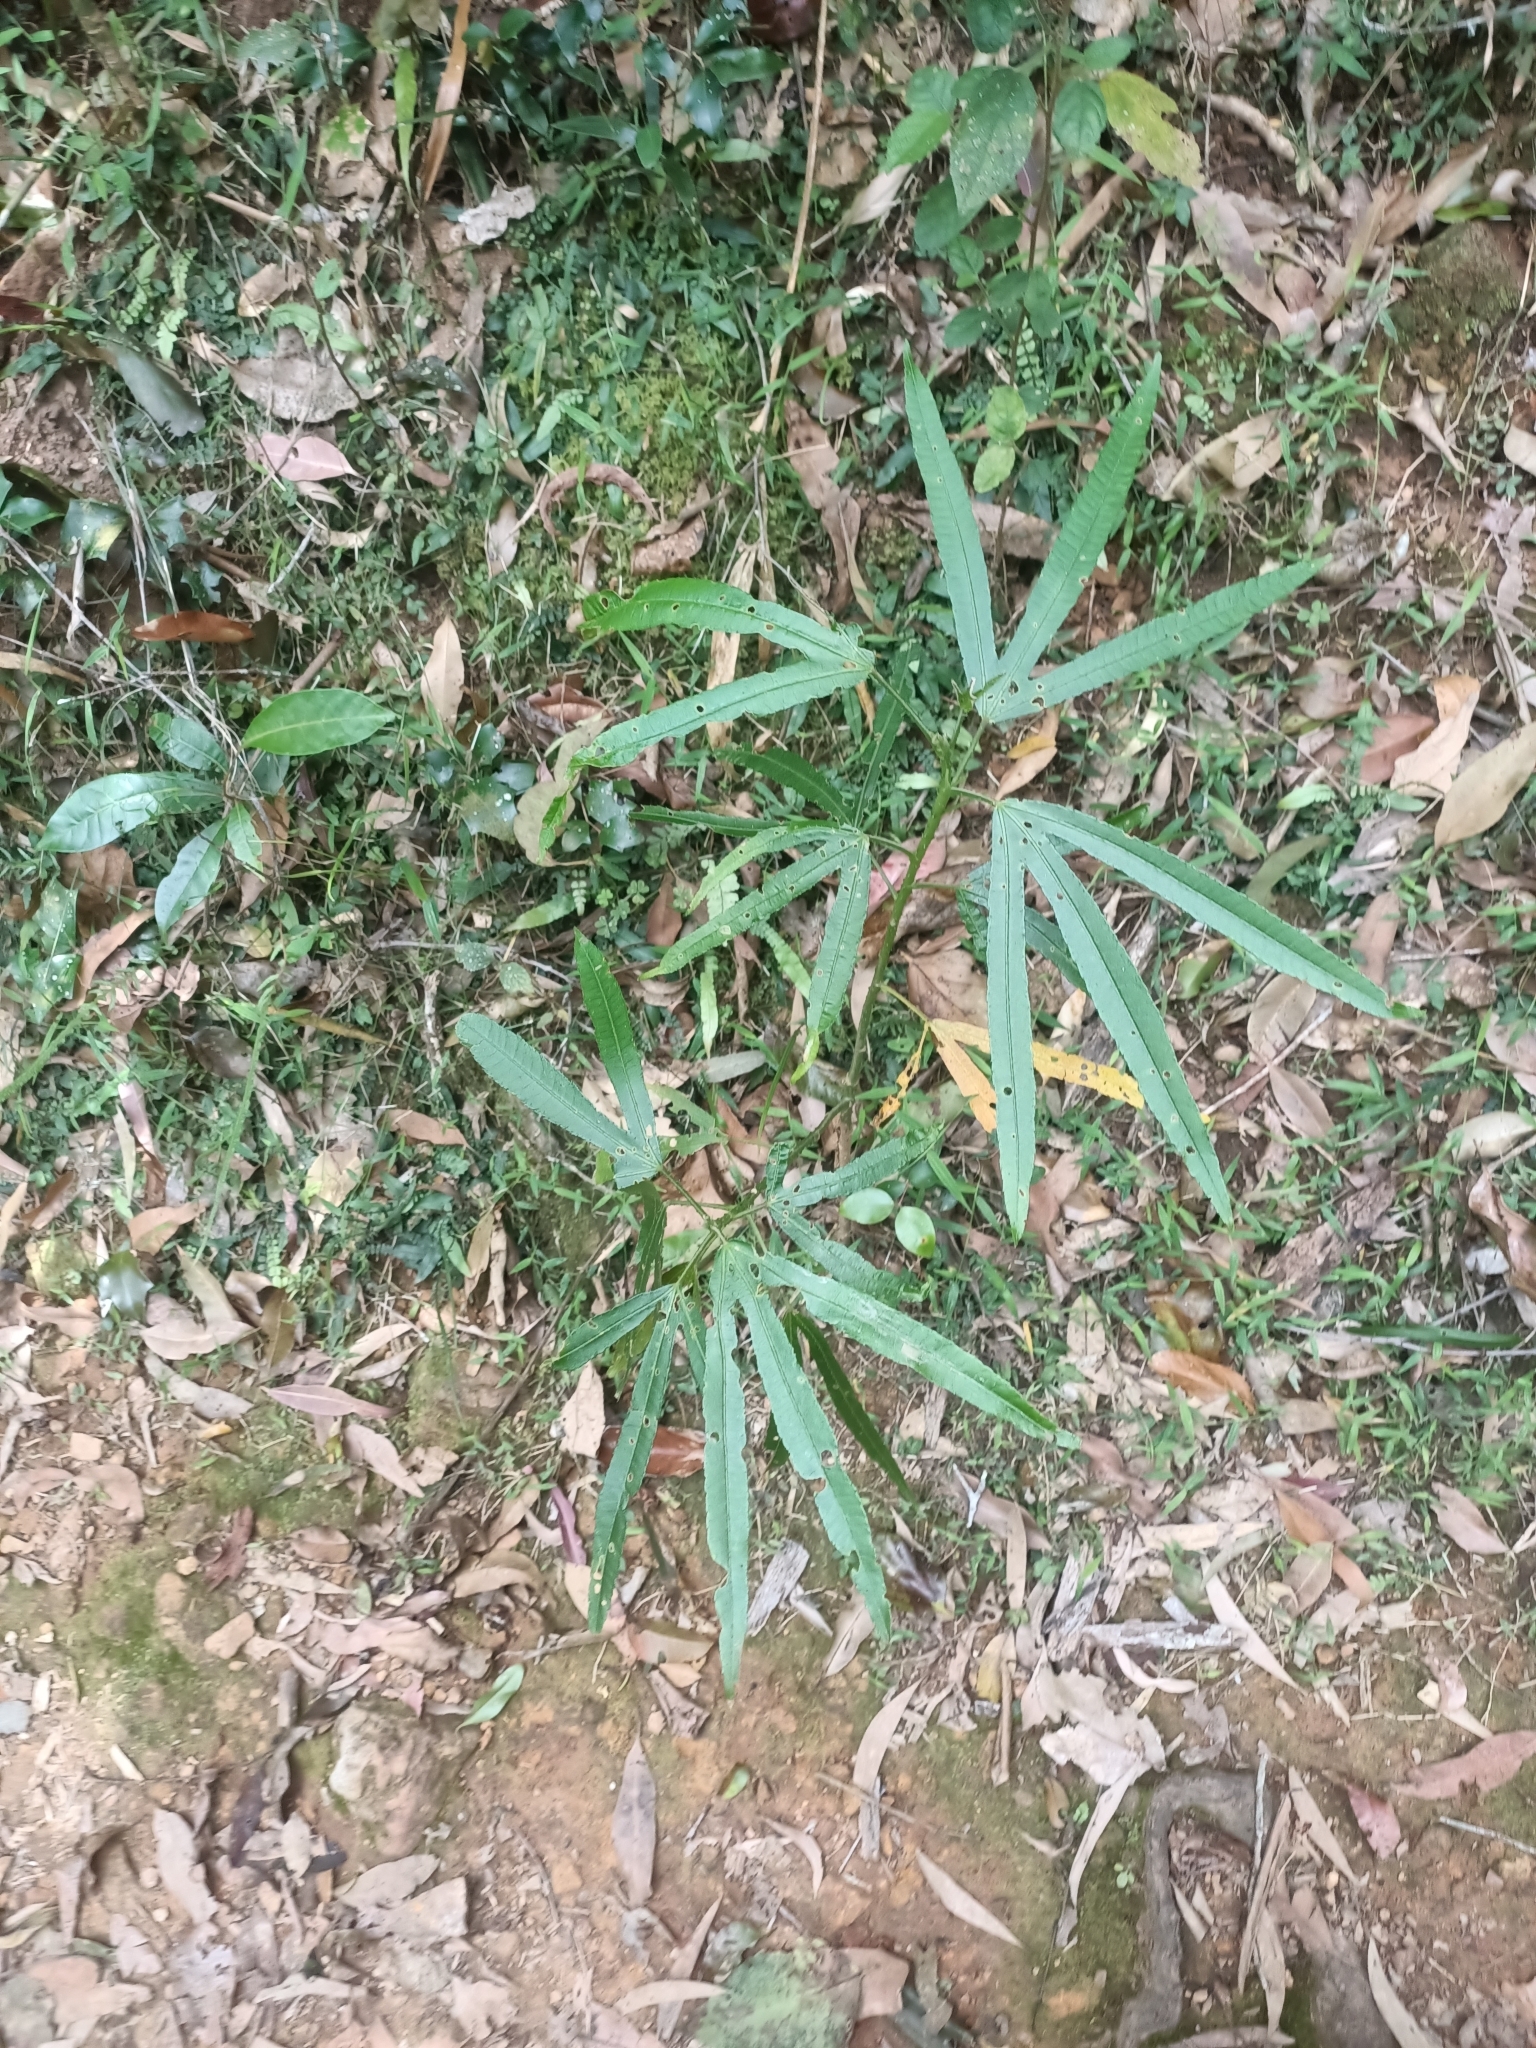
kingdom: Plantae
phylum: Tracheophyta
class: Magnoliopsida
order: Malvales
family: Malvaceae
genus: Hibiscus
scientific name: Hibiscus heterophyllus
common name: Queensland-sorrel
